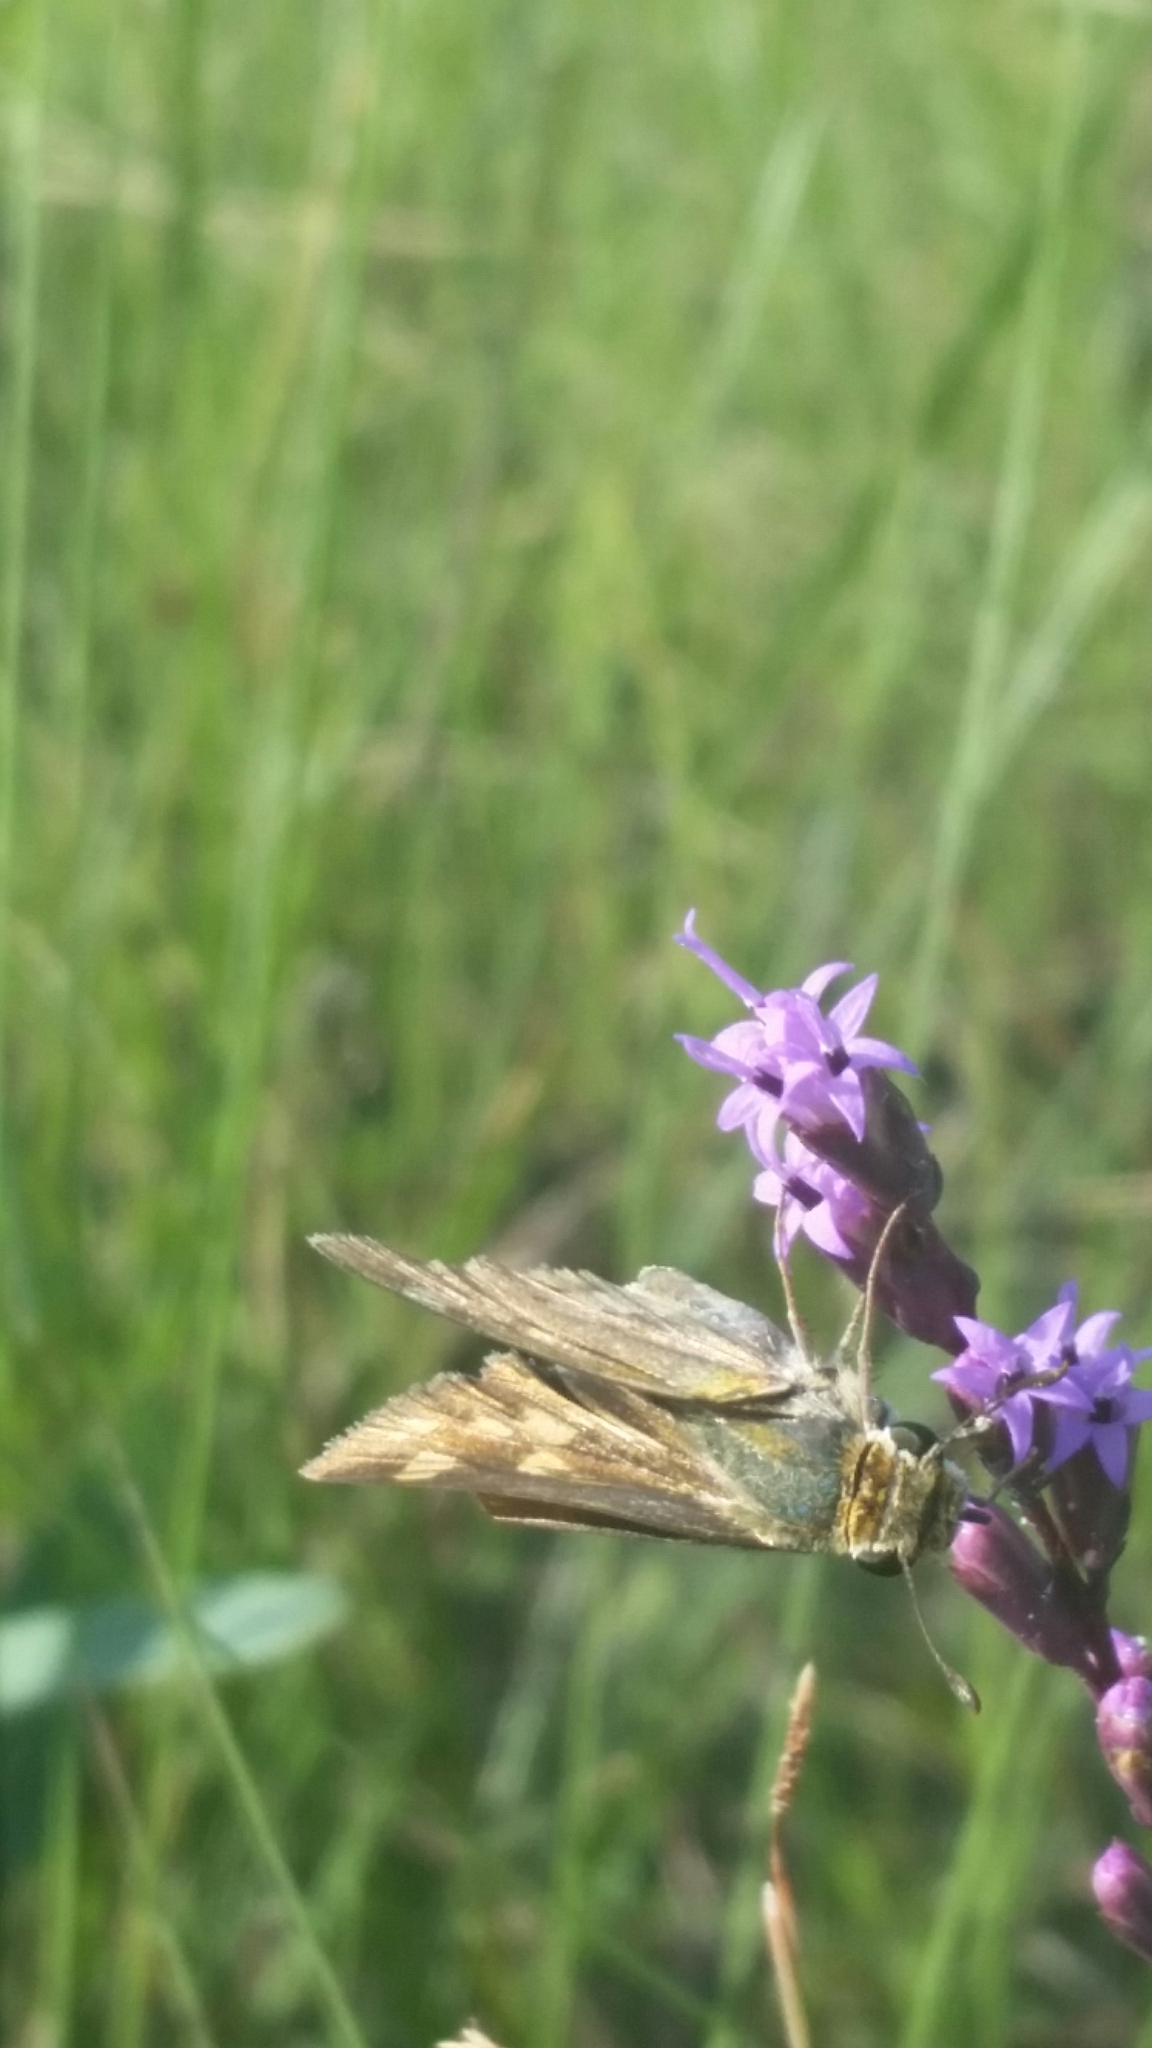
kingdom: Animalia
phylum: Arthropoda
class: Insecta
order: Lepidoptera
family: Hesperiidae
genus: Hylephila
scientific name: Hylephila phyleus
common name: Fiery skipper
